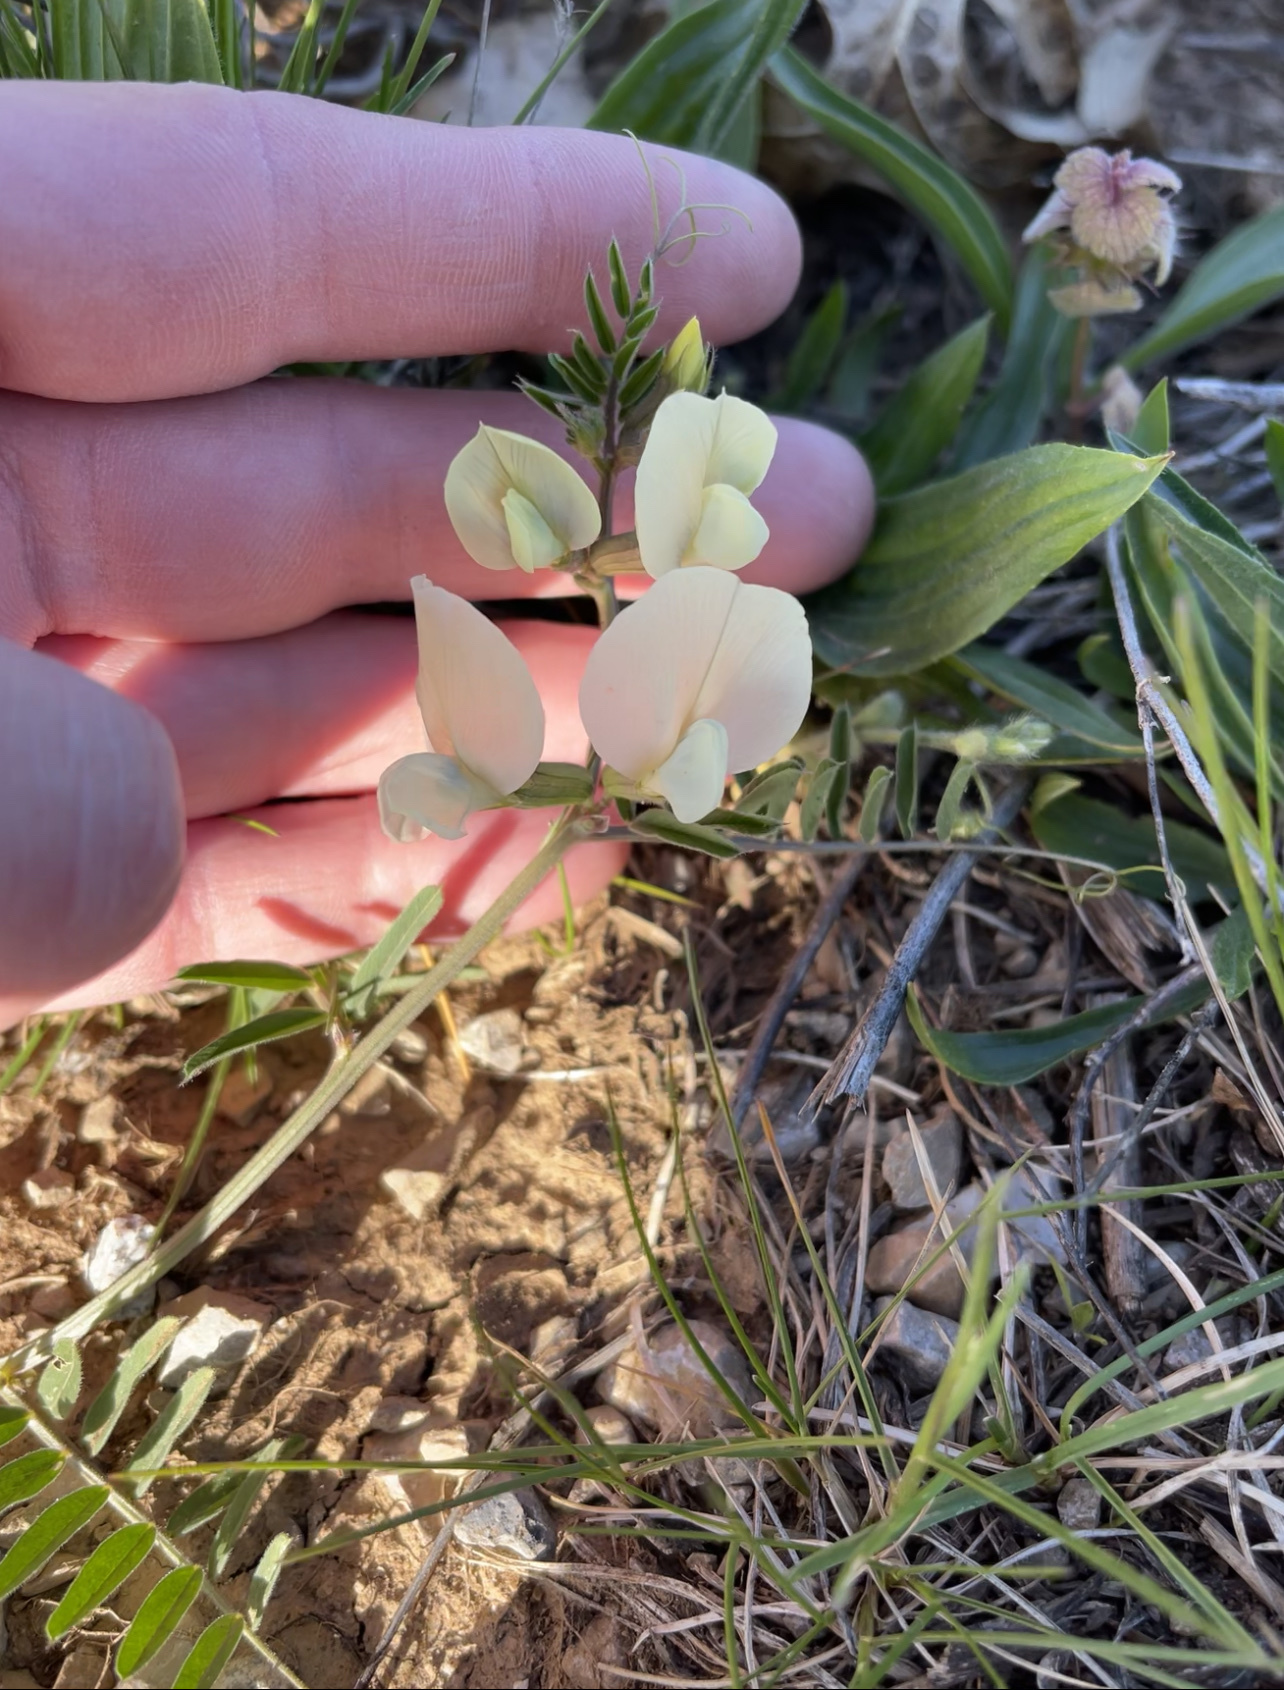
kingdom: Plantae
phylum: Tracheophyta
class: Magnoliopsida
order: Fabales
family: Fabaceae
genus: Vicia
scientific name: Vicia grandiflora
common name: Large yellow vetch
